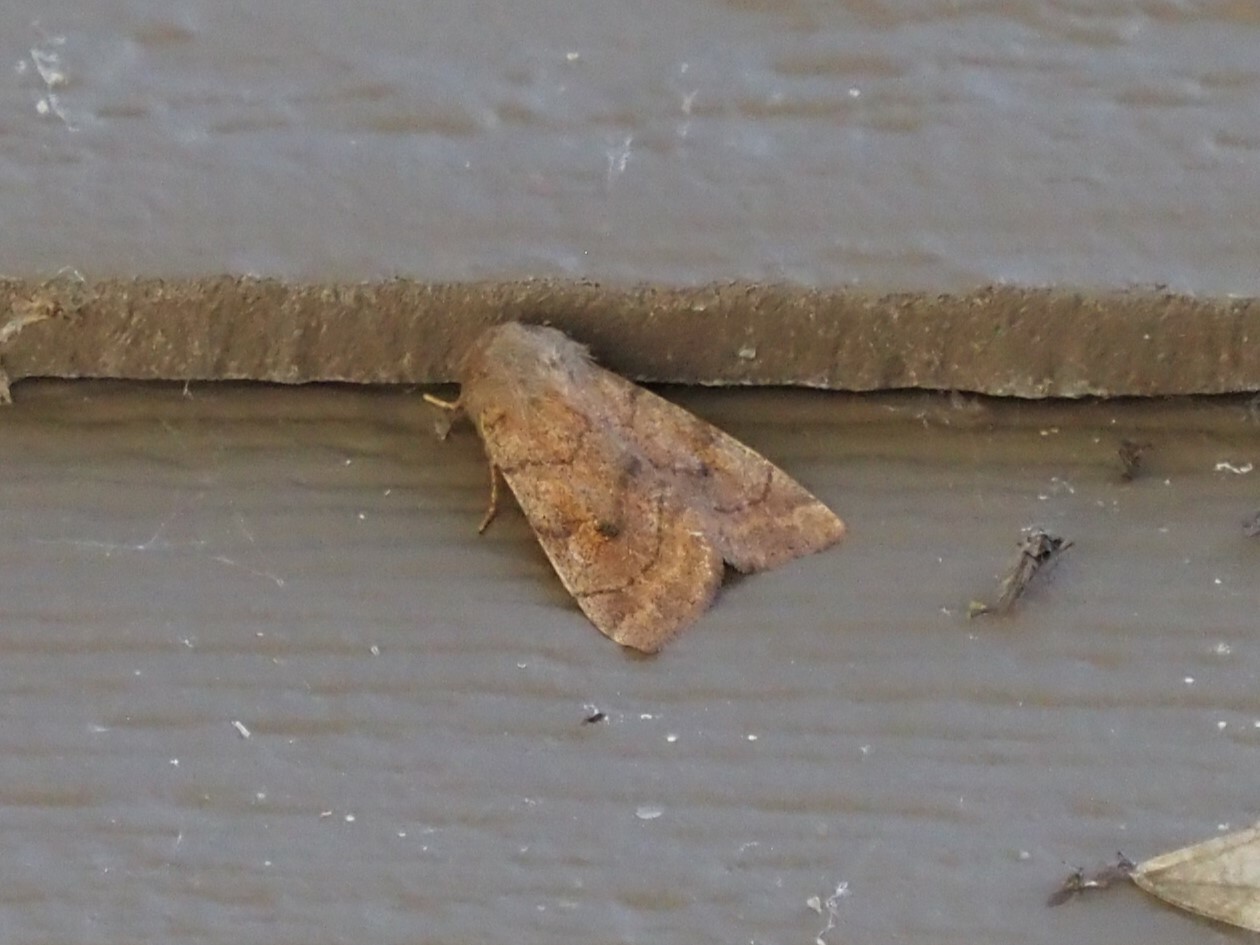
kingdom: Animalia
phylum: Arthropoda
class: Insecta
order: Lepidoptera
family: Noctuidae
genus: Enargia
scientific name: Enargia infumata
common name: Smoked sallow
